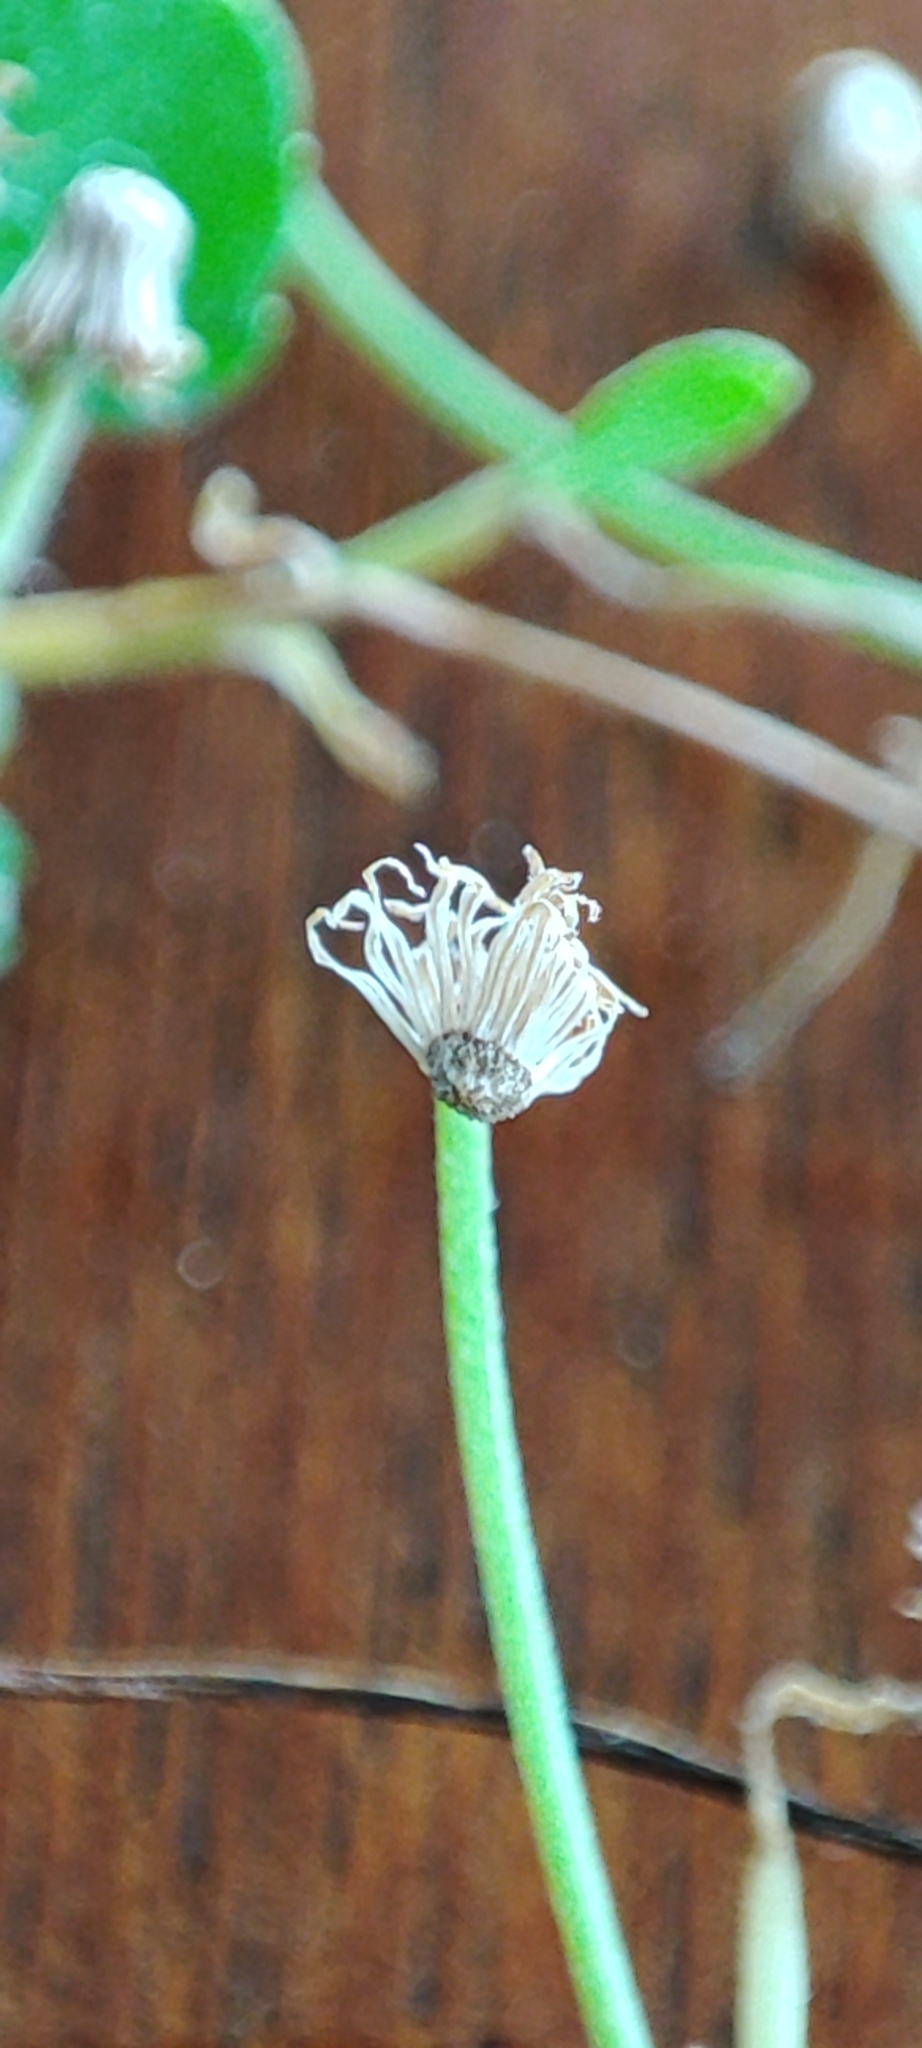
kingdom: Plantae
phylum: Tracheophyta
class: Magnoliopsida
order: Asterales
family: Asteraceae
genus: Erigeron
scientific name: Erigeron bellioides
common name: Bellorita
